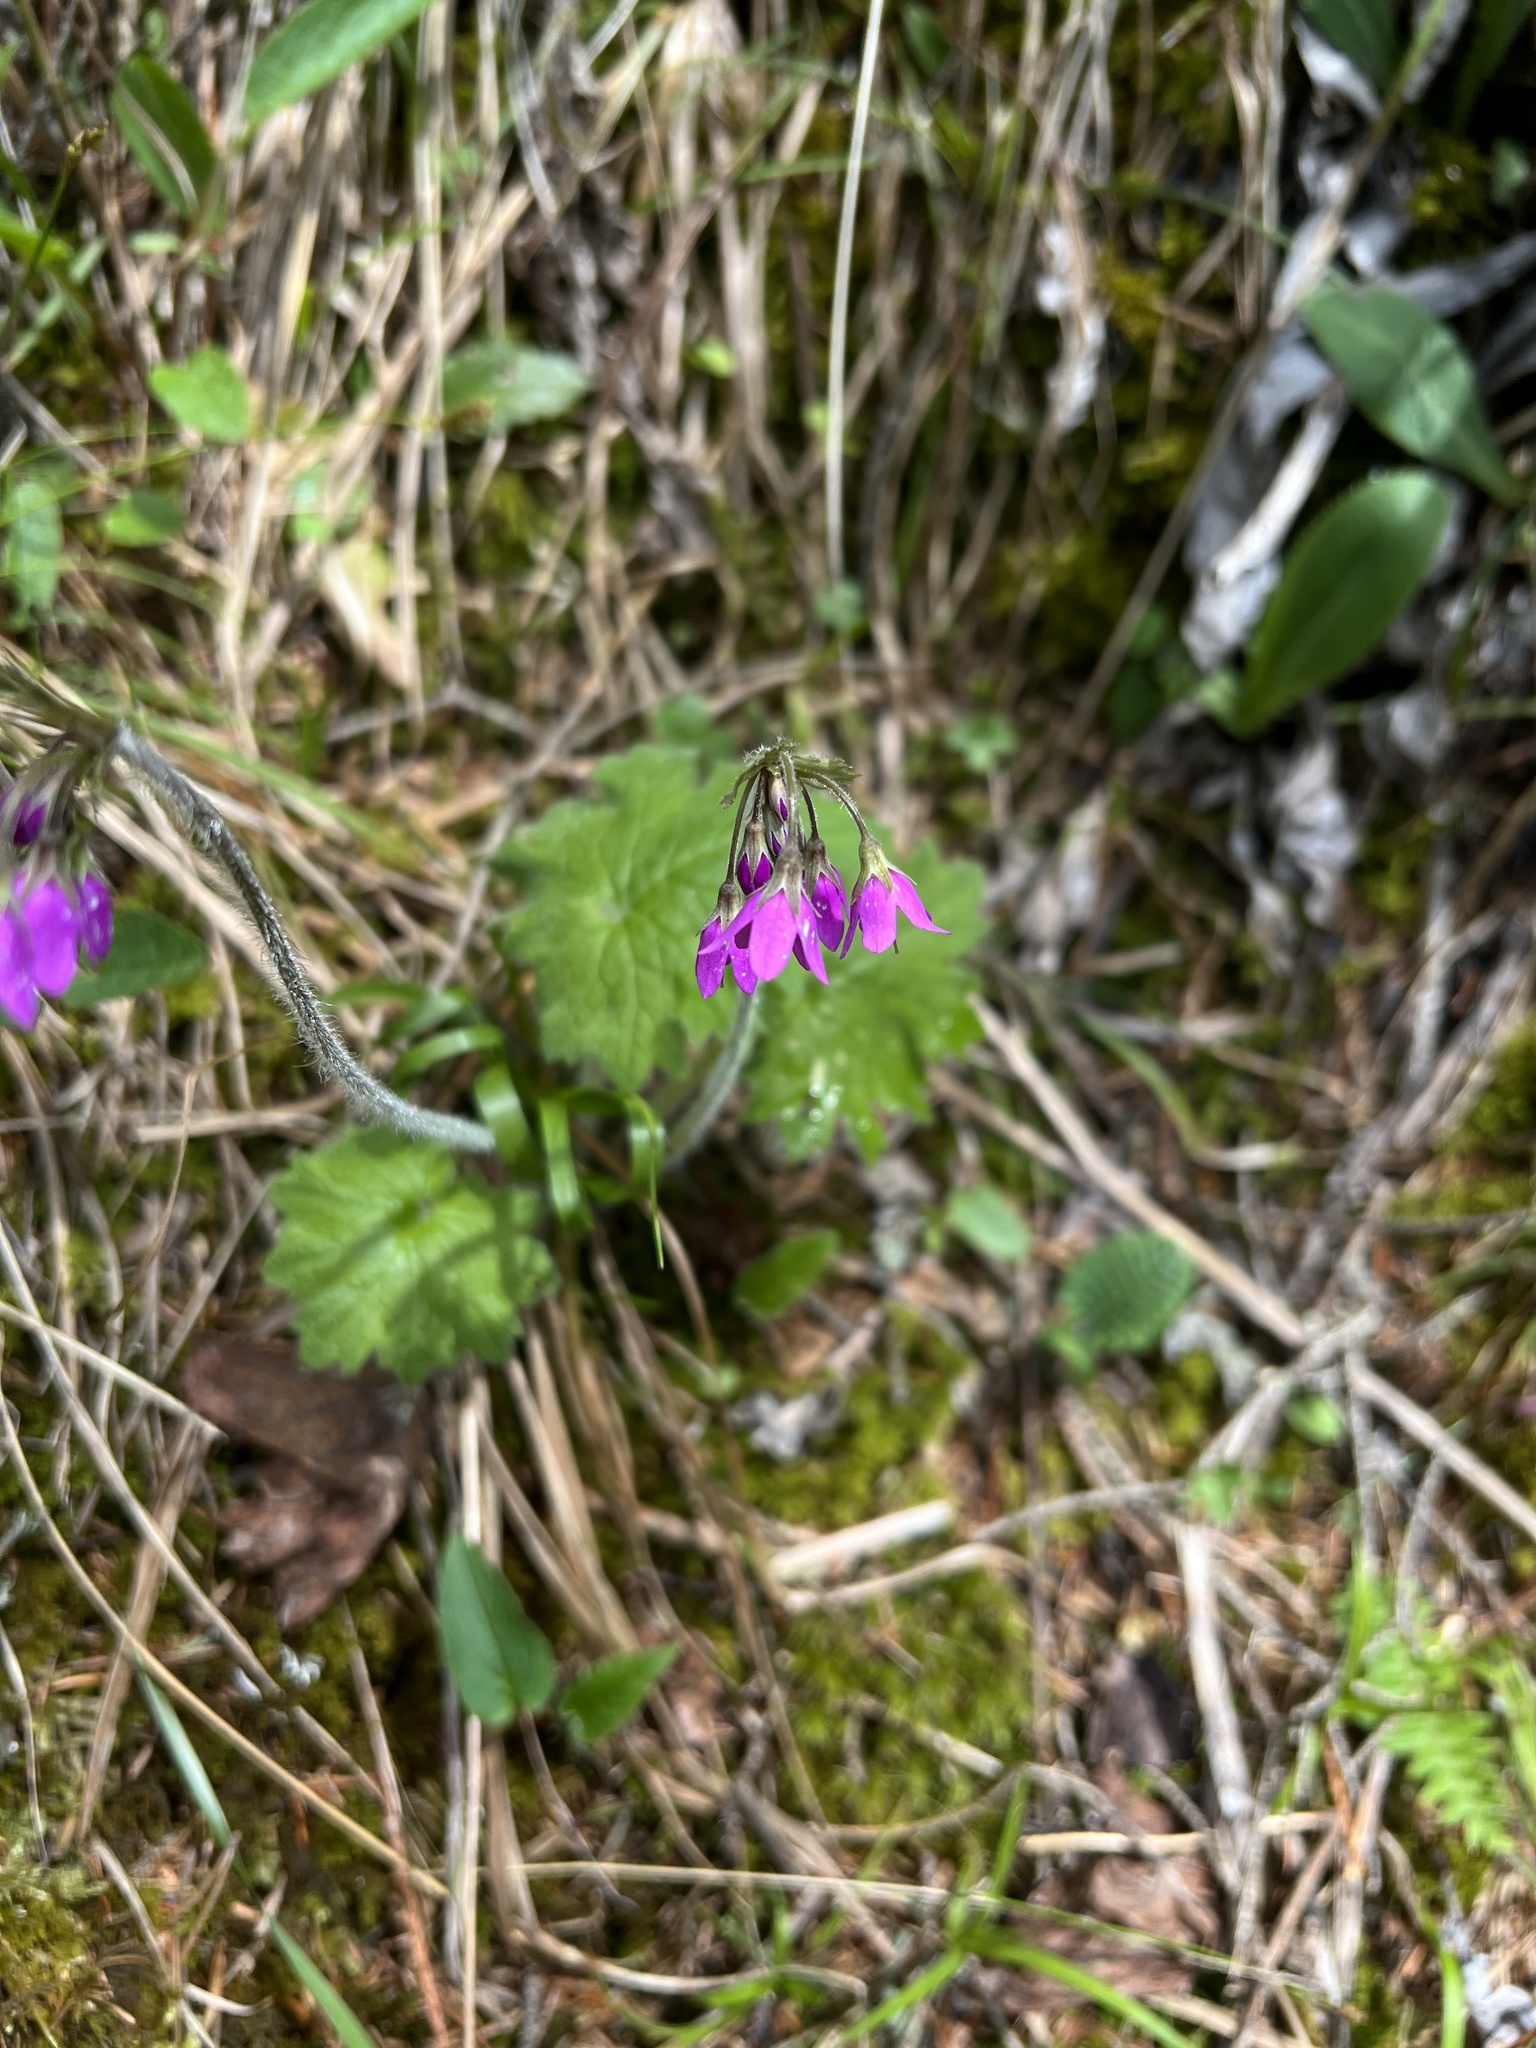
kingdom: Plantae
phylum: Tracheophyta
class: Magnoliopsida
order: Ericales
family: Primulaceae
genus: Primula
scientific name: Primula matthioli
